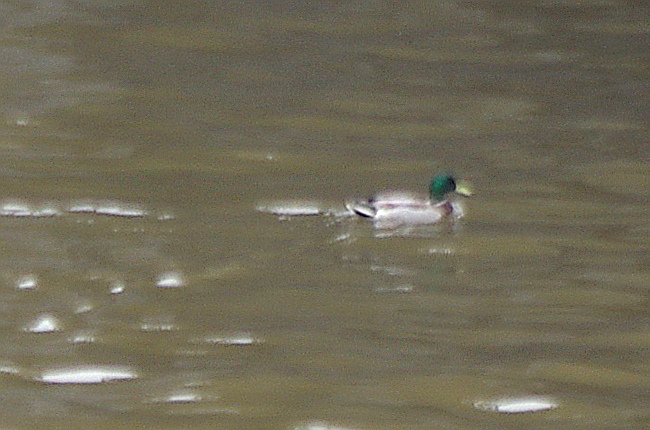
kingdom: Animalia
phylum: Chordata
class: Aves
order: Anseriformes
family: Anatidae
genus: Anas
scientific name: Anas platyrhynchos
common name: Mallard
